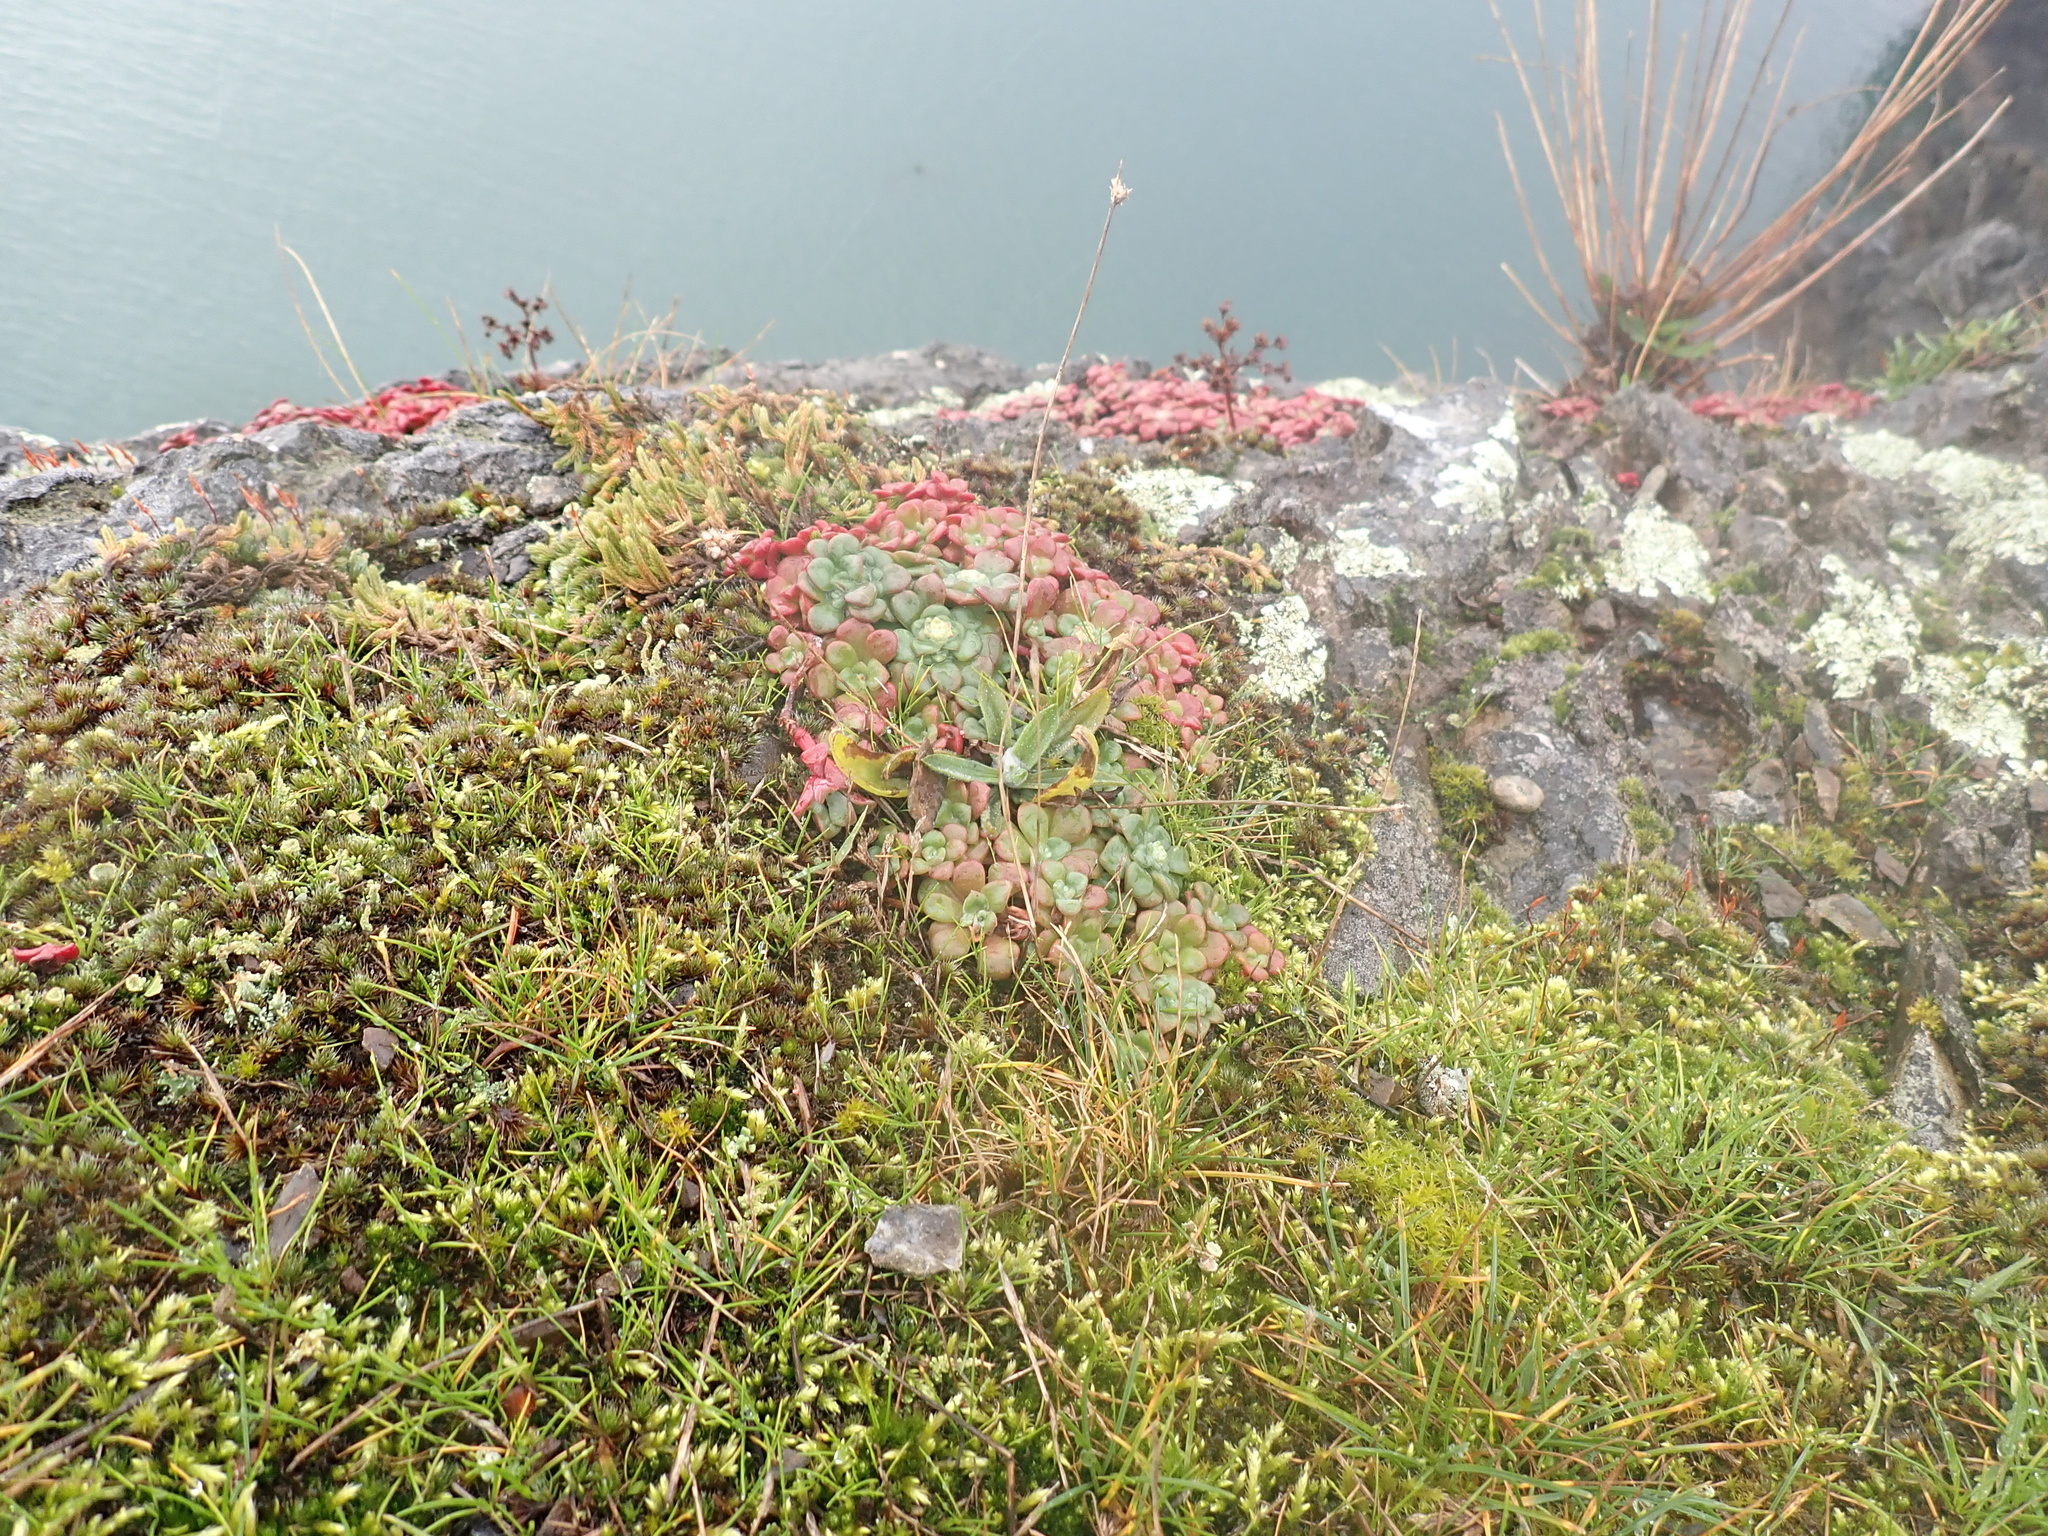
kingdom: Plantae
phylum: Tracheophyta
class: Magnoliopsida
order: Saxifragales
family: Crassulaceae
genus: Sedum
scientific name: Sedum spathulifolium
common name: Colorado stonecrop
